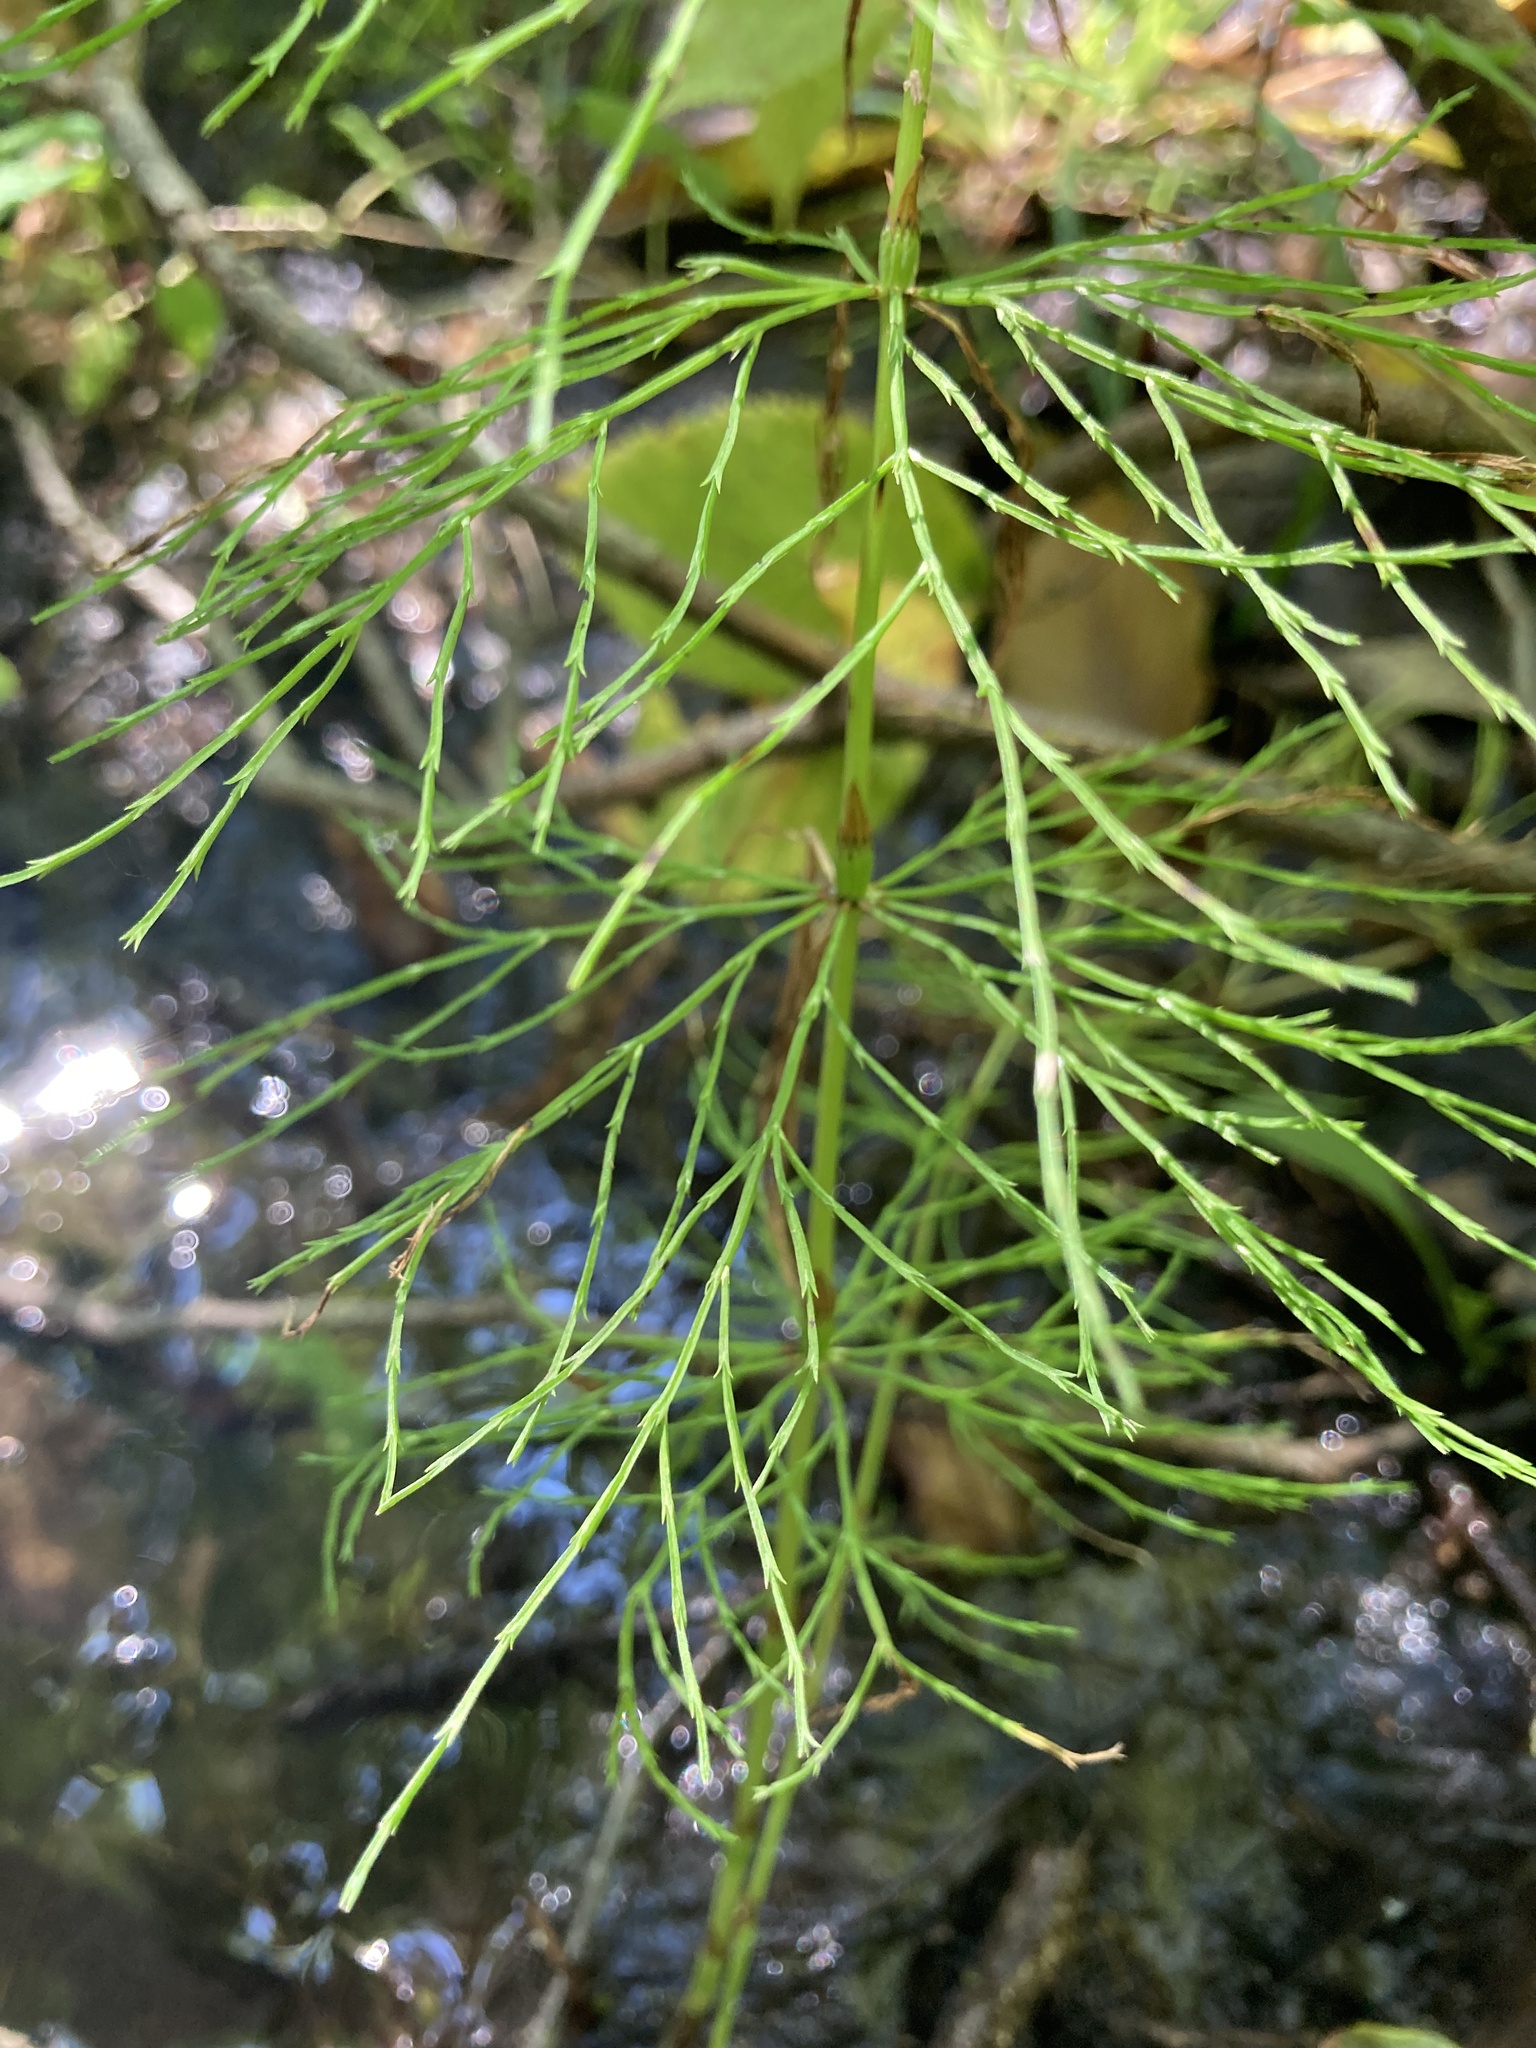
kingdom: Plantae
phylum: Tracheophyta
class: Polypodiopsida
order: Equisetales
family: Equisetaceae
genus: Equisetum
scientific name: Equisetum sylvaticum
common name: Wood horsetail
